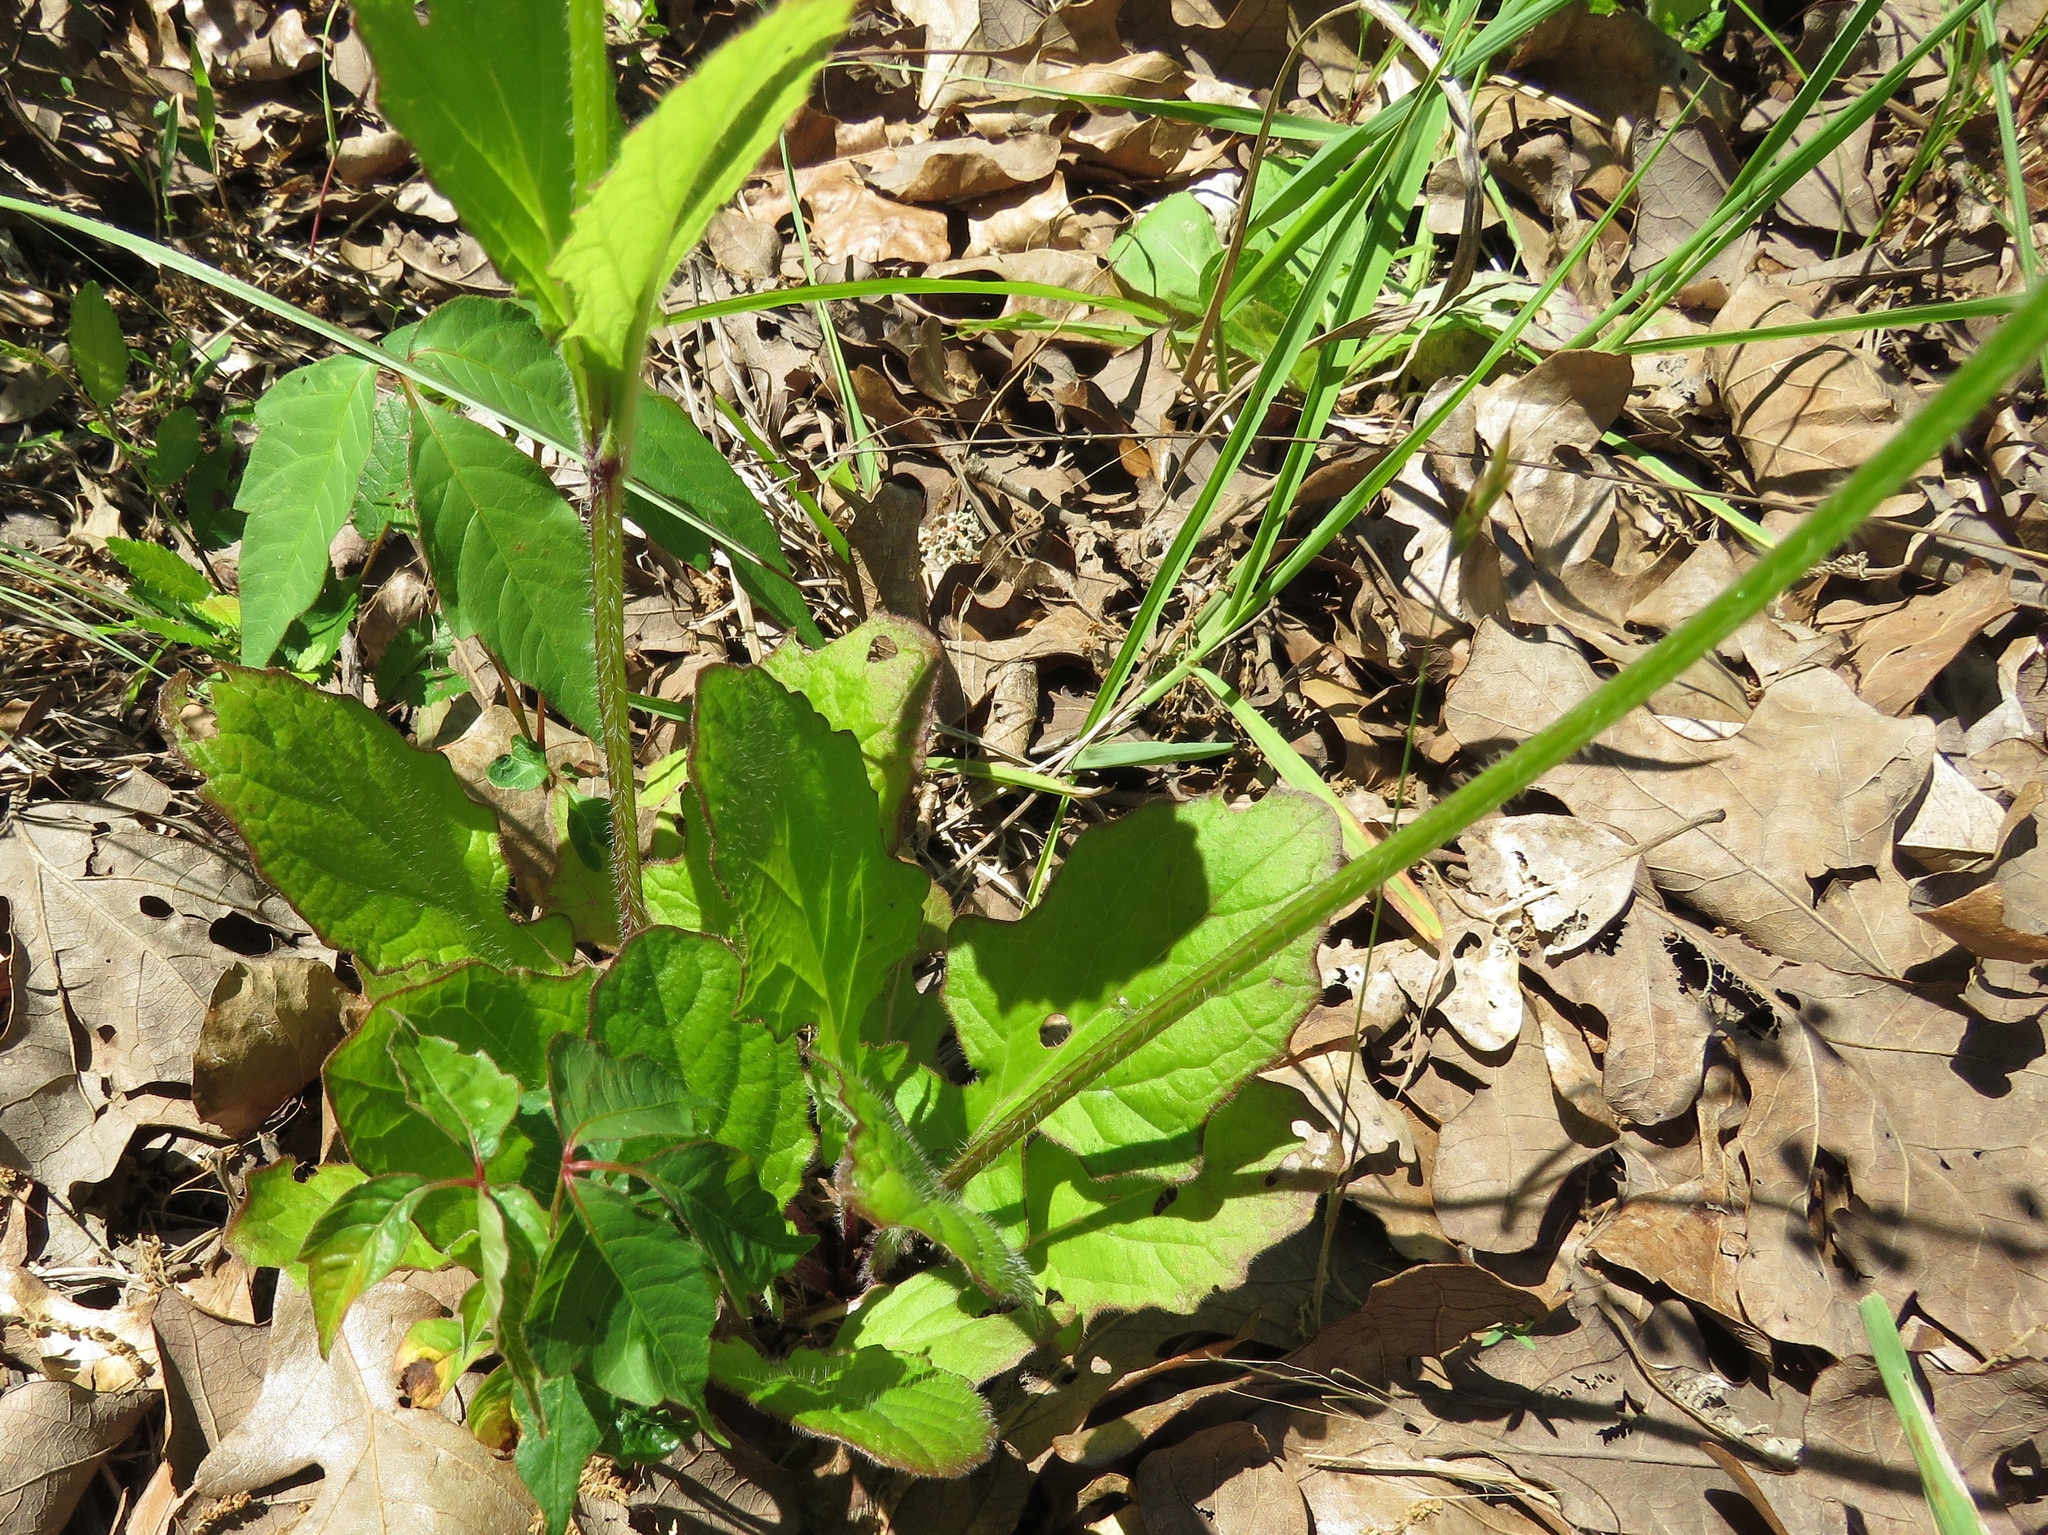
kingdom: Plantae
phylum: Tracheophyta
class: Magnoliopsida
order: Lamiales
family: Lamiaceae
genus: Salvia
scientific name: Salvia lyrata
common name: Cancerweed
